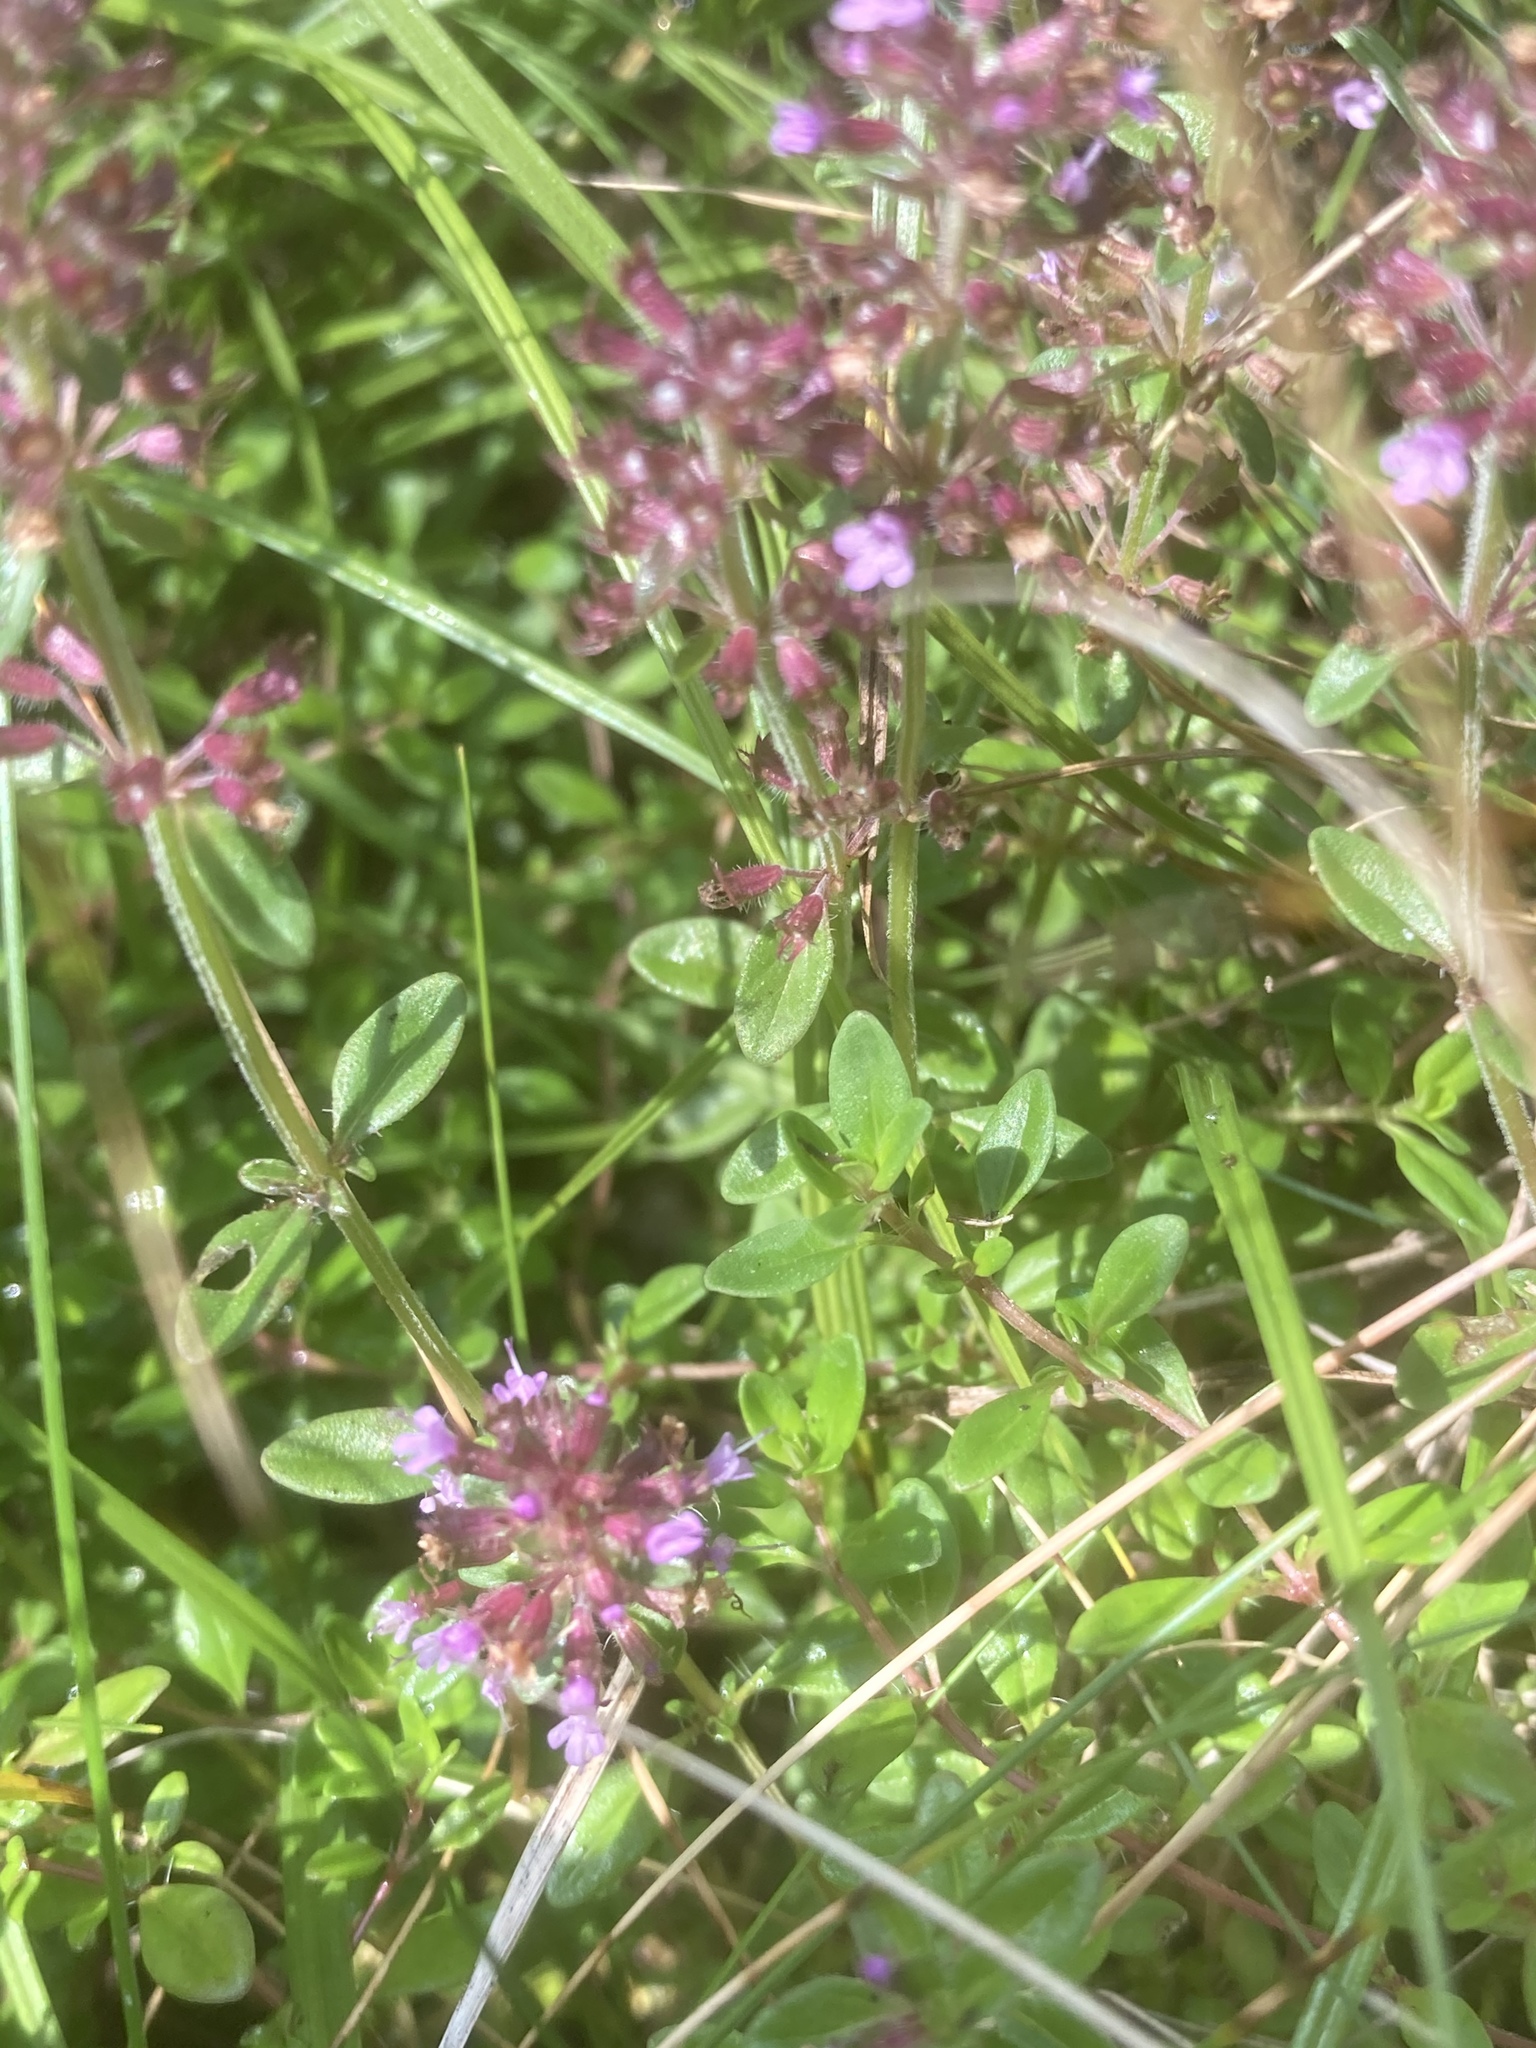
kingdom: Plantae
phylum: Tracheophyta
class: Magnoliopsida
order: Lamiales
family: Lamiaceae
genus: Thymus
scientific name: Thymus pulegioides
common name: Large thyme
